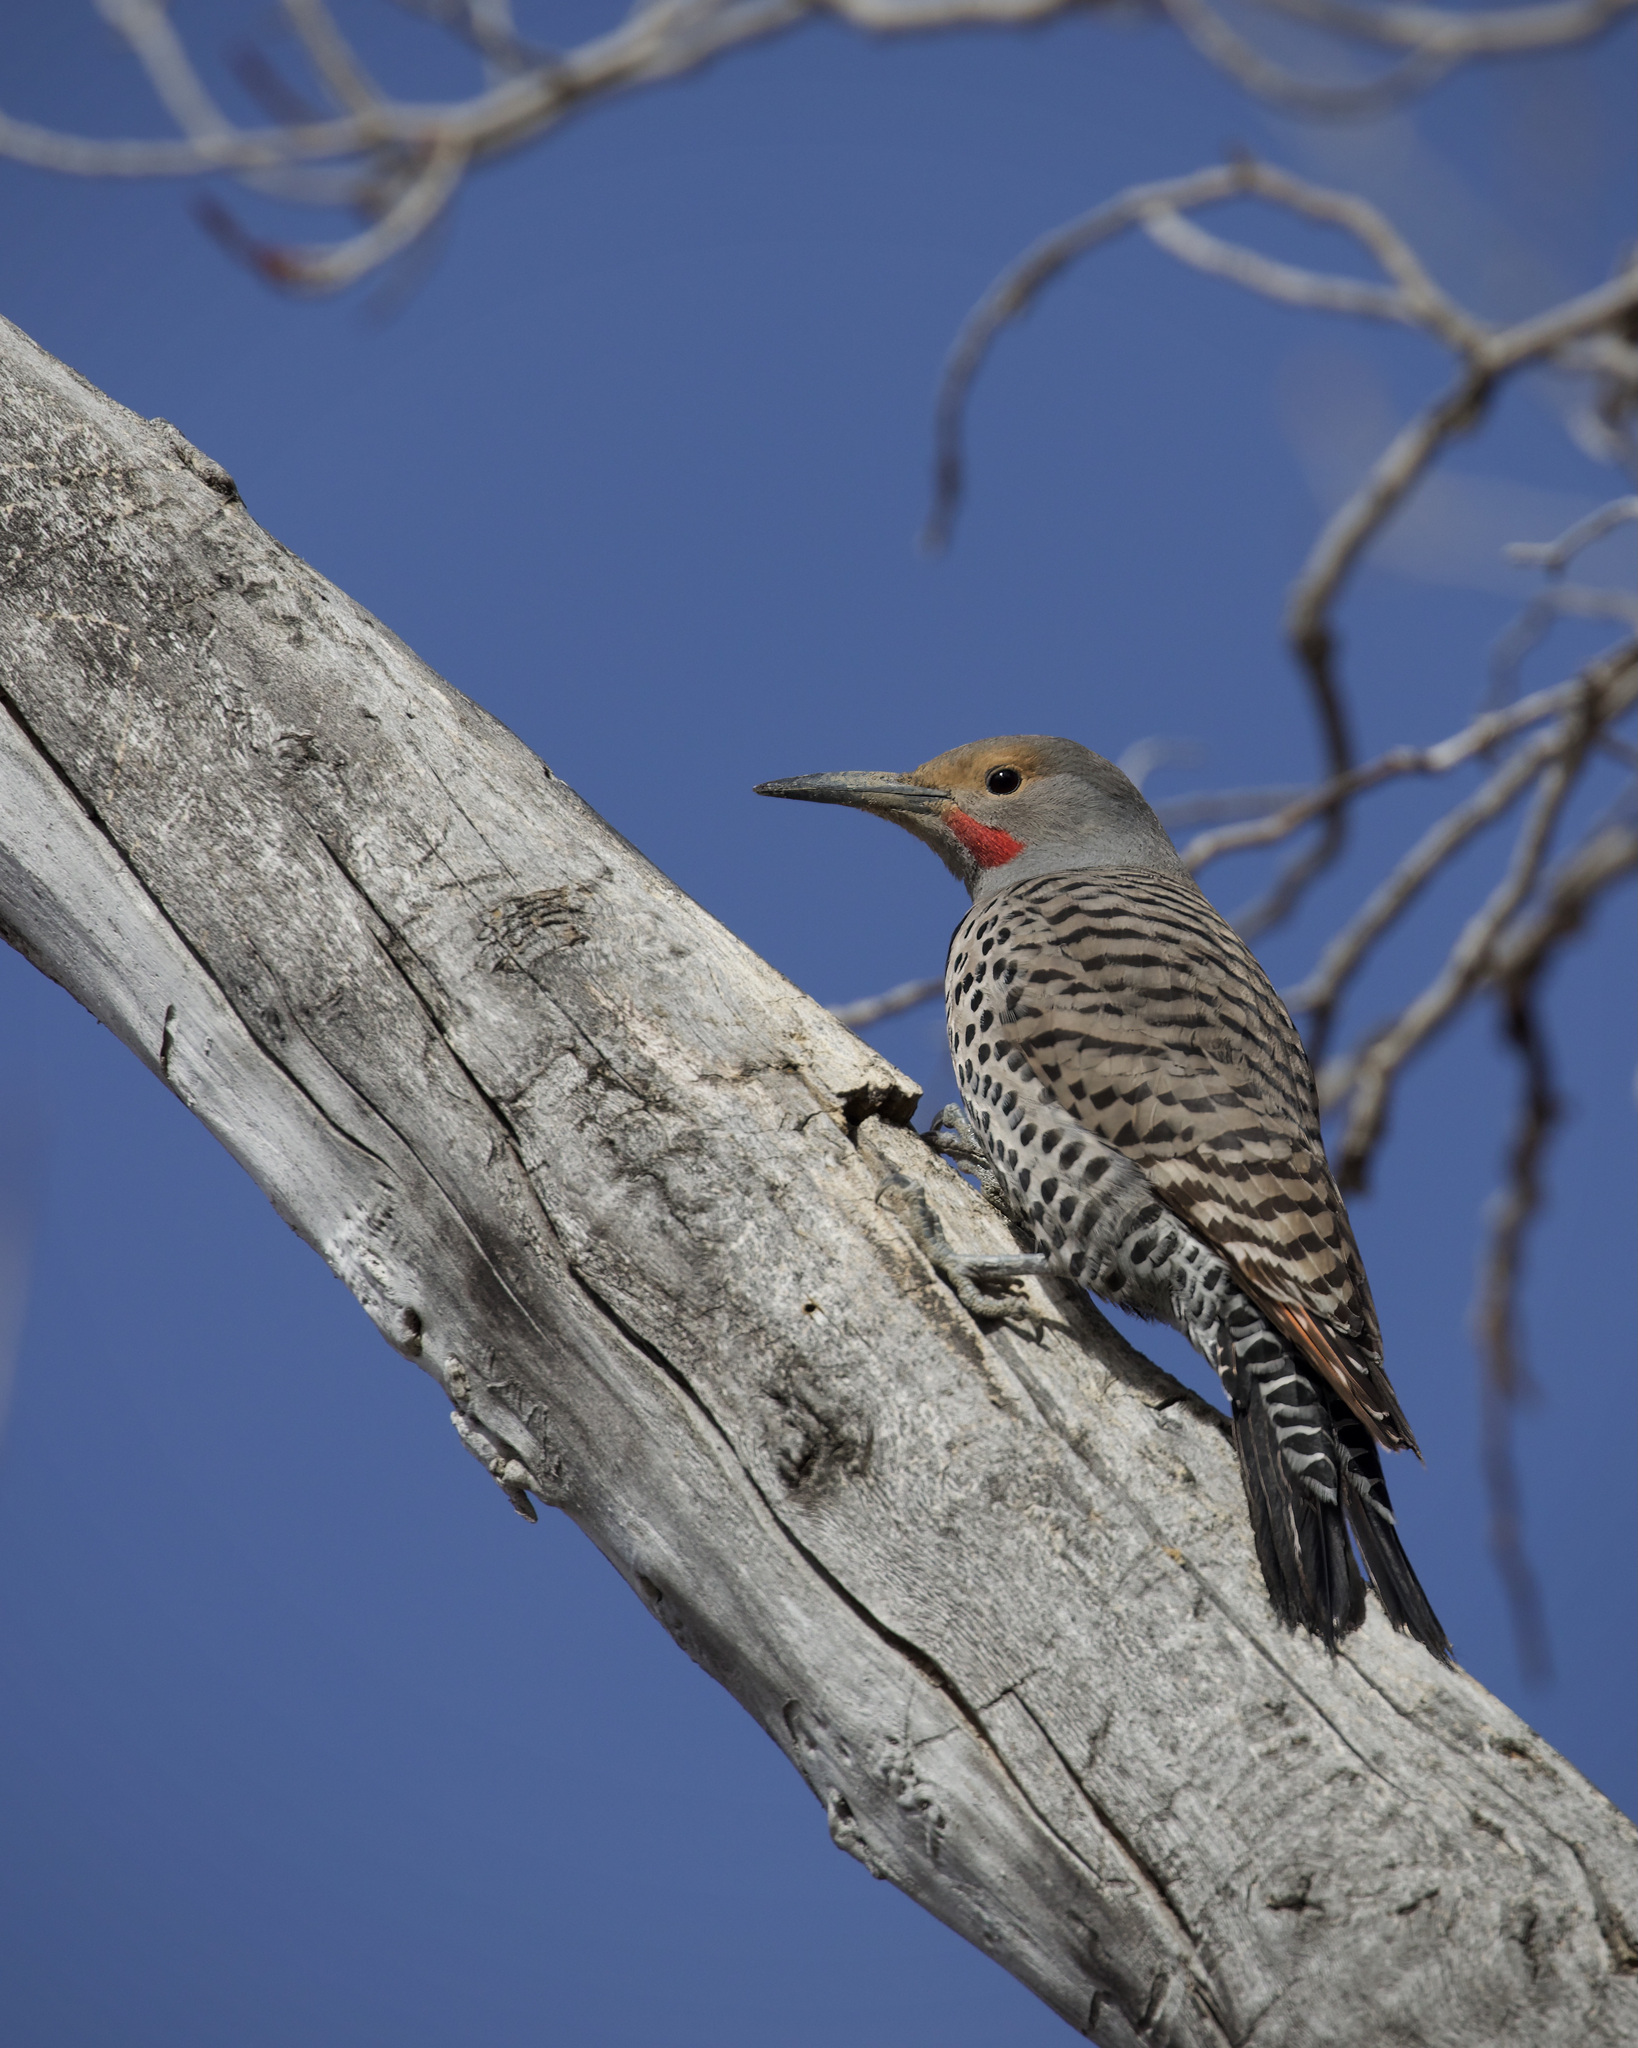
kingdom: Animalia
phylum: Chordata
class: Aves
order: Piciformes
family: Picidae
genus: Colaptes
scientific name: Colaptes auratus
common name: Northern flicker
